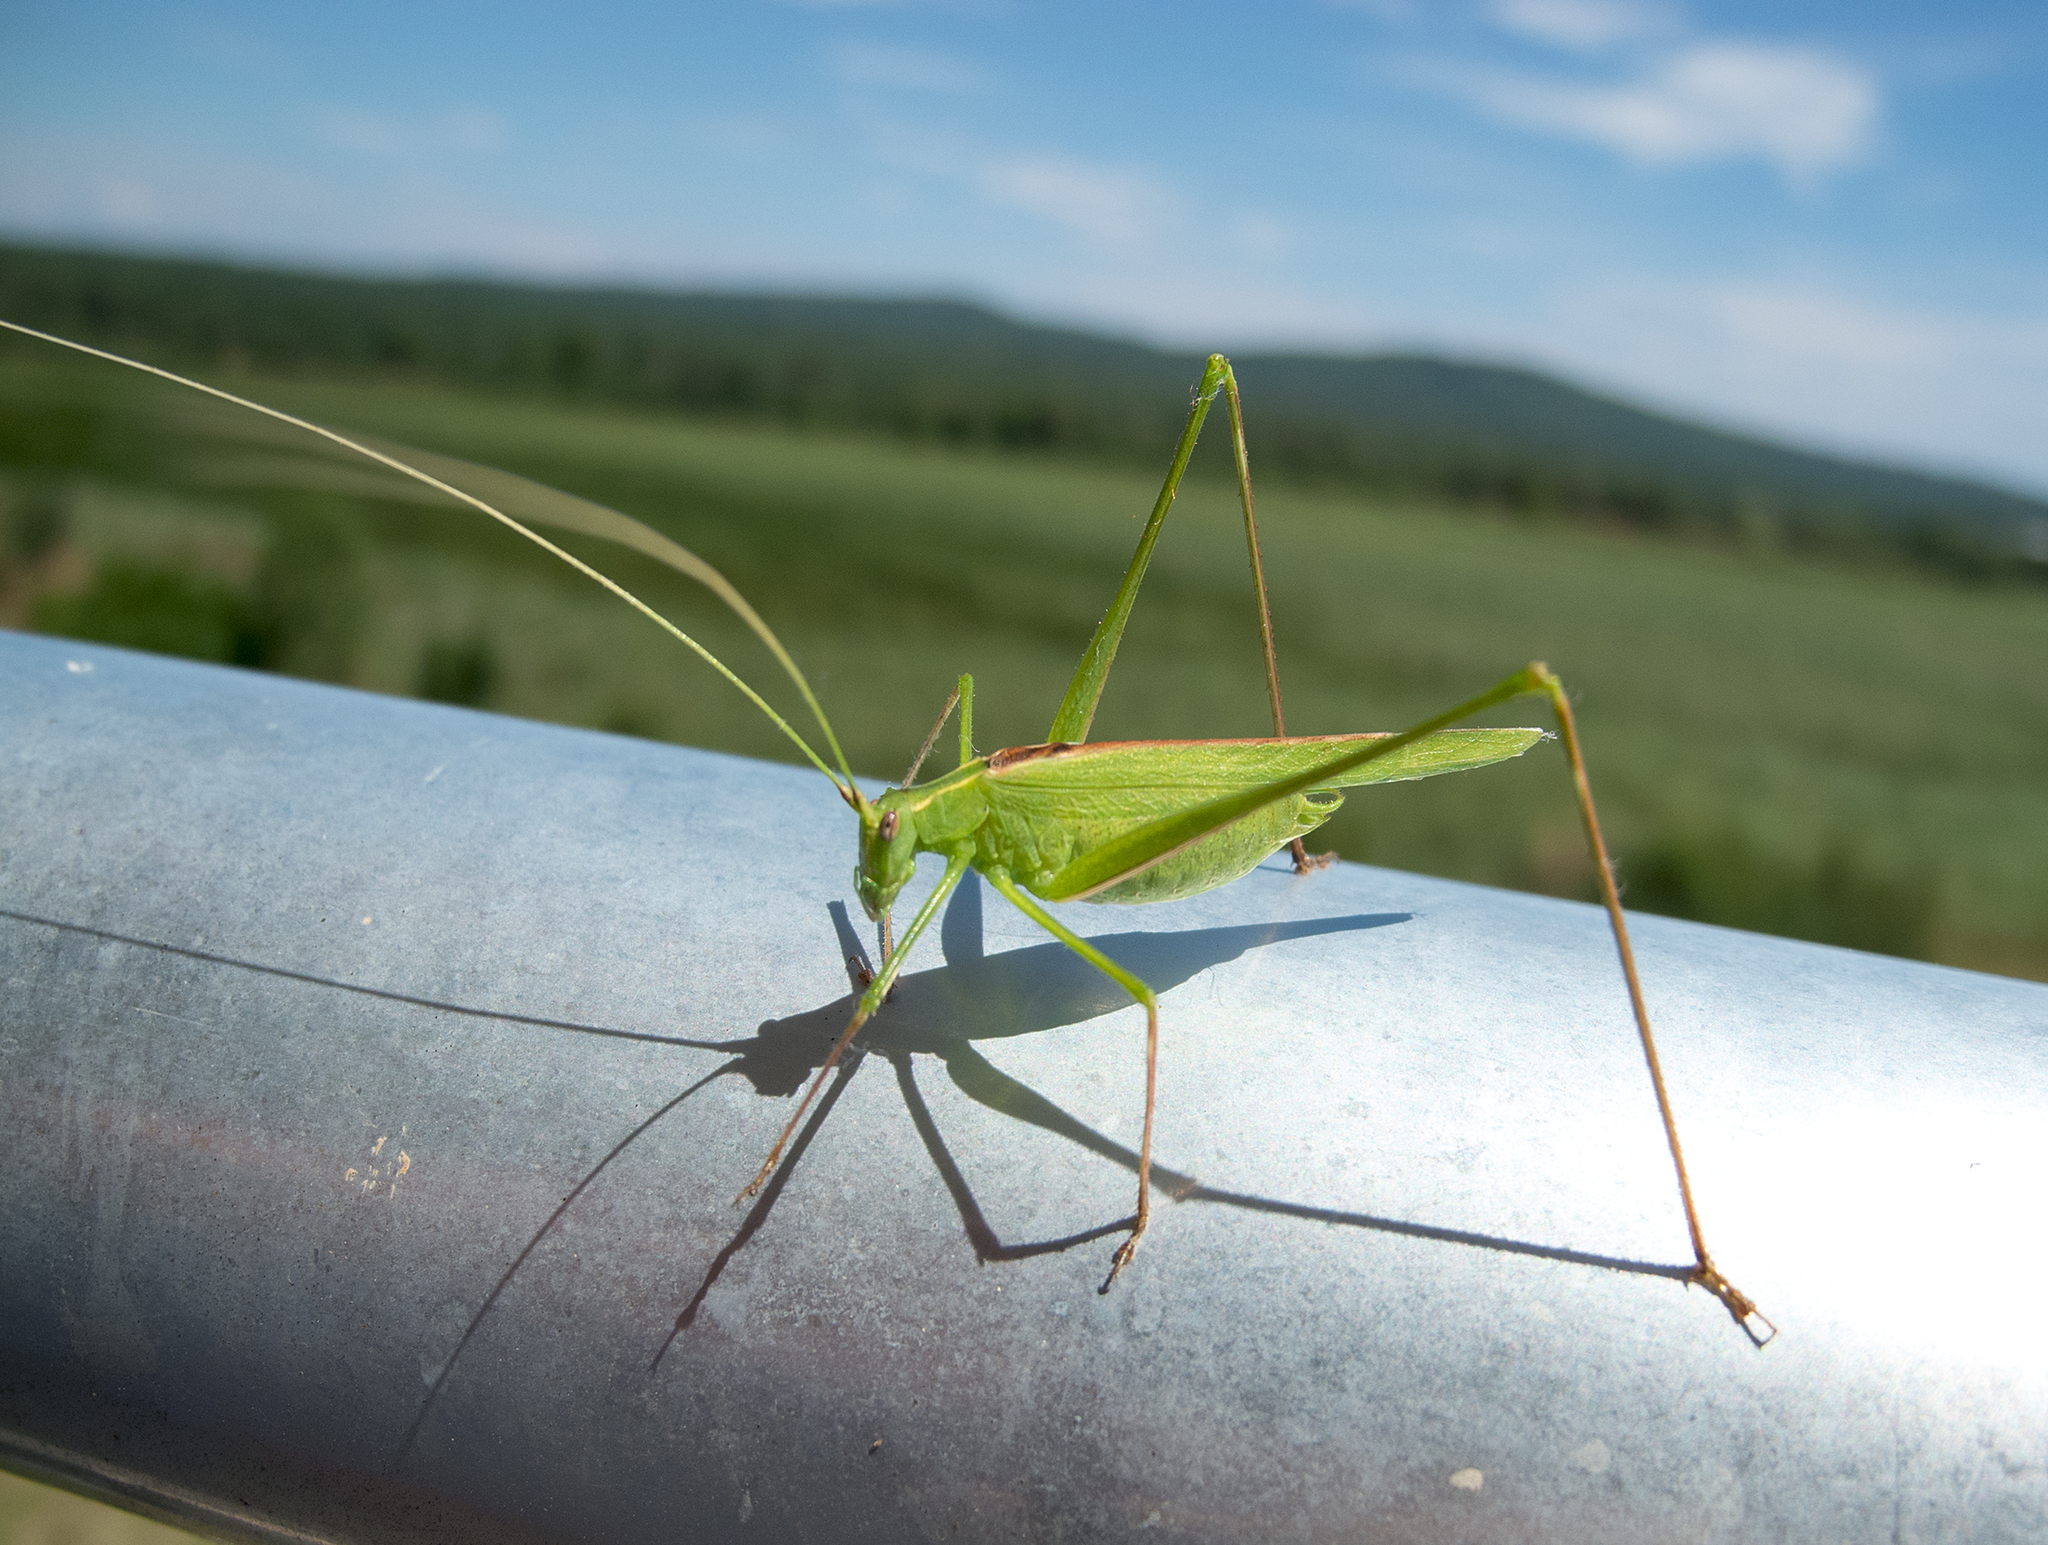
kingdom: Animalia
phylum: Arthropoda
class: Insecta
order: Orthoptera
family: Tettigoniidae
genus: Tylopsis
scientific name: Tylopsis lilifolia
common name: Lily bush-cricket
